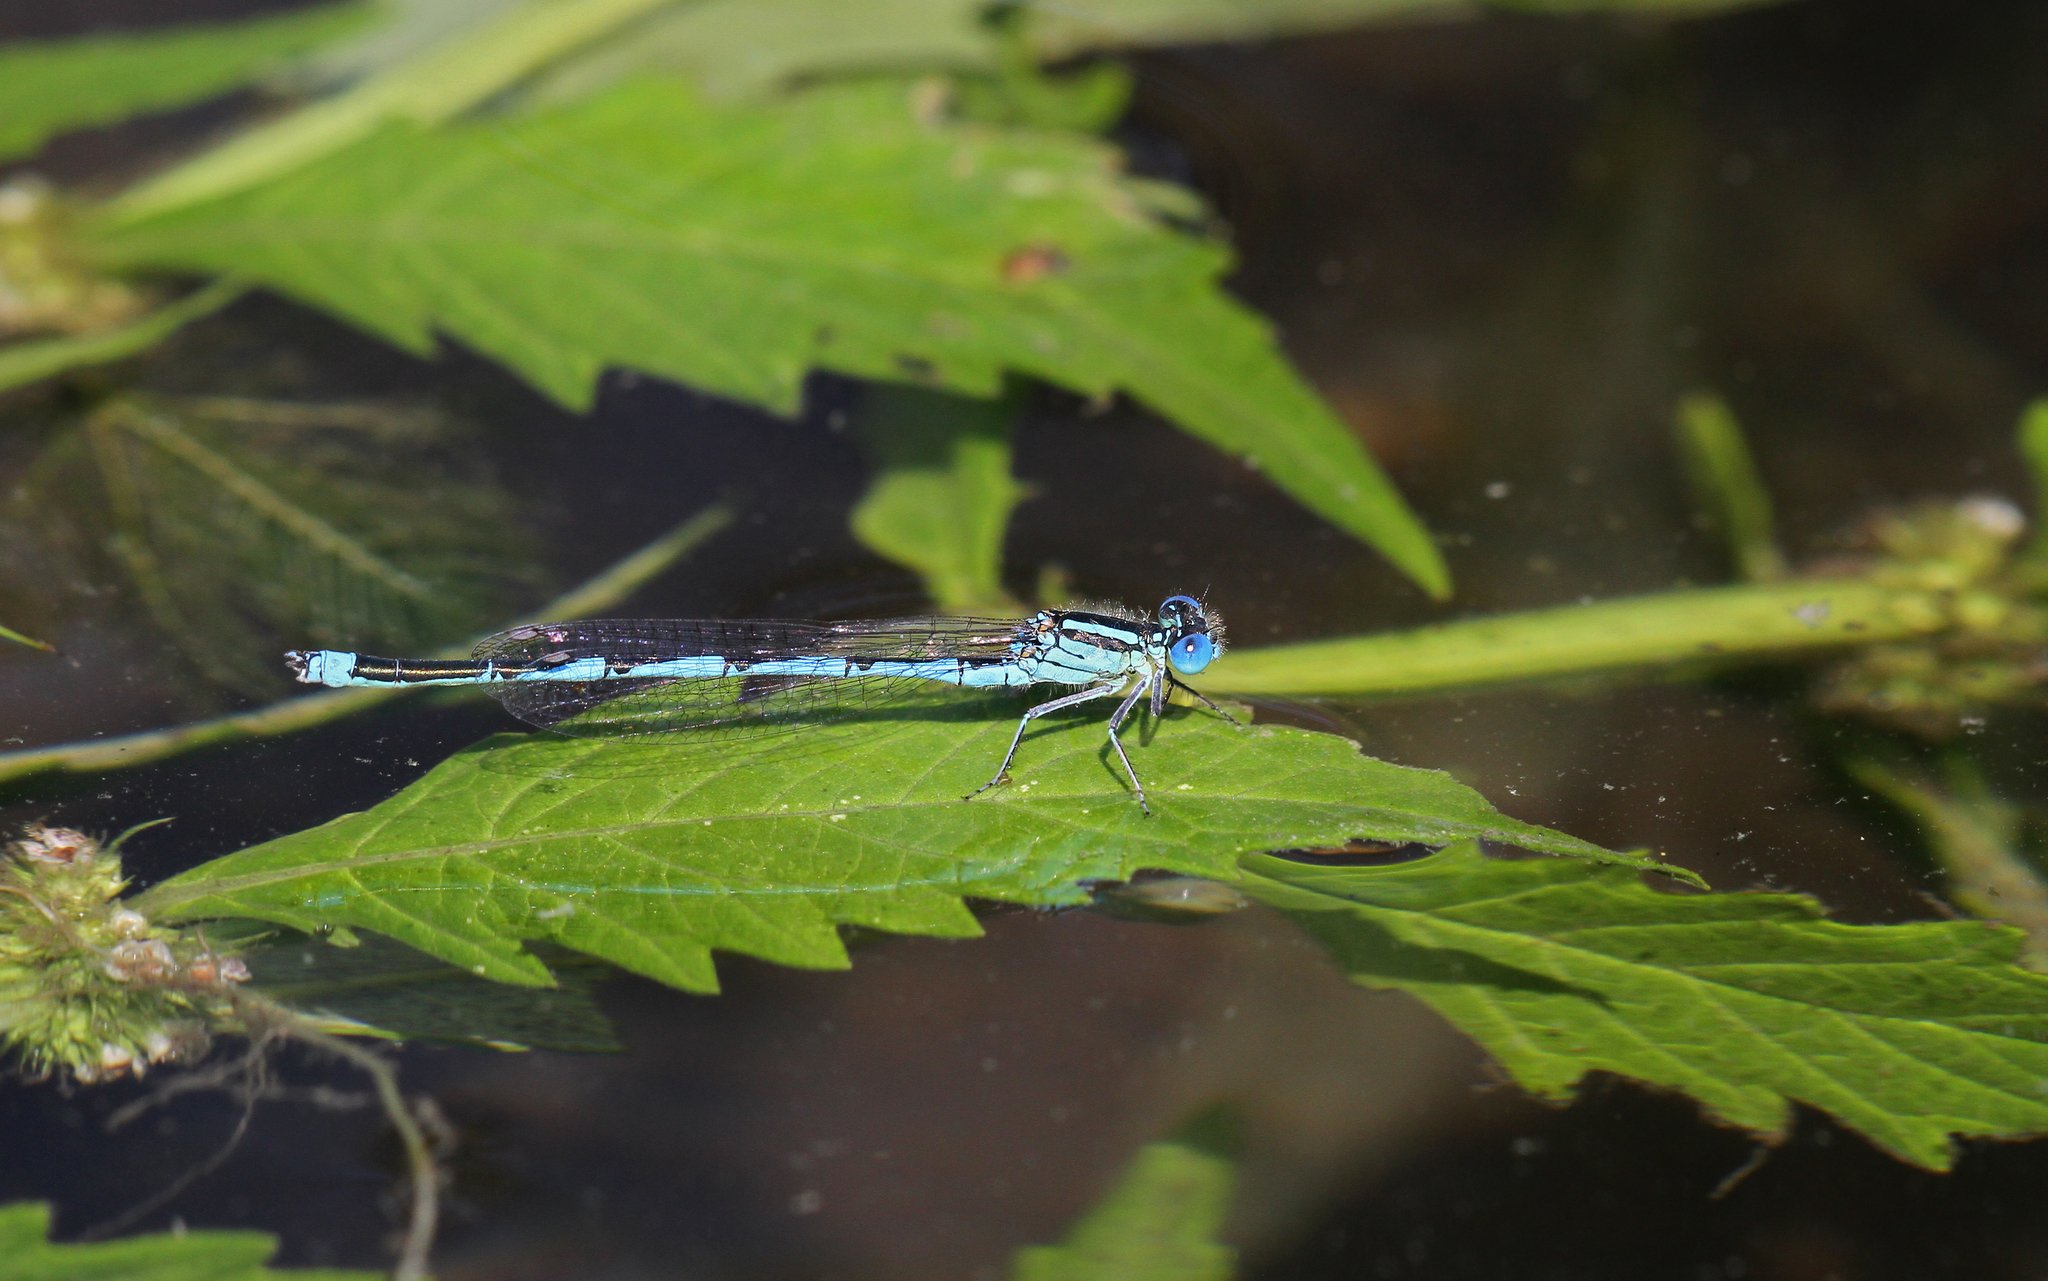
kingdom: Animalia
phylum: Arthropoda
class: Insecta
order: Odonata
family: Coenagrionidae
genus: Erythromma
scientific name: Erythromma lindenii
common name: Blue-eye
